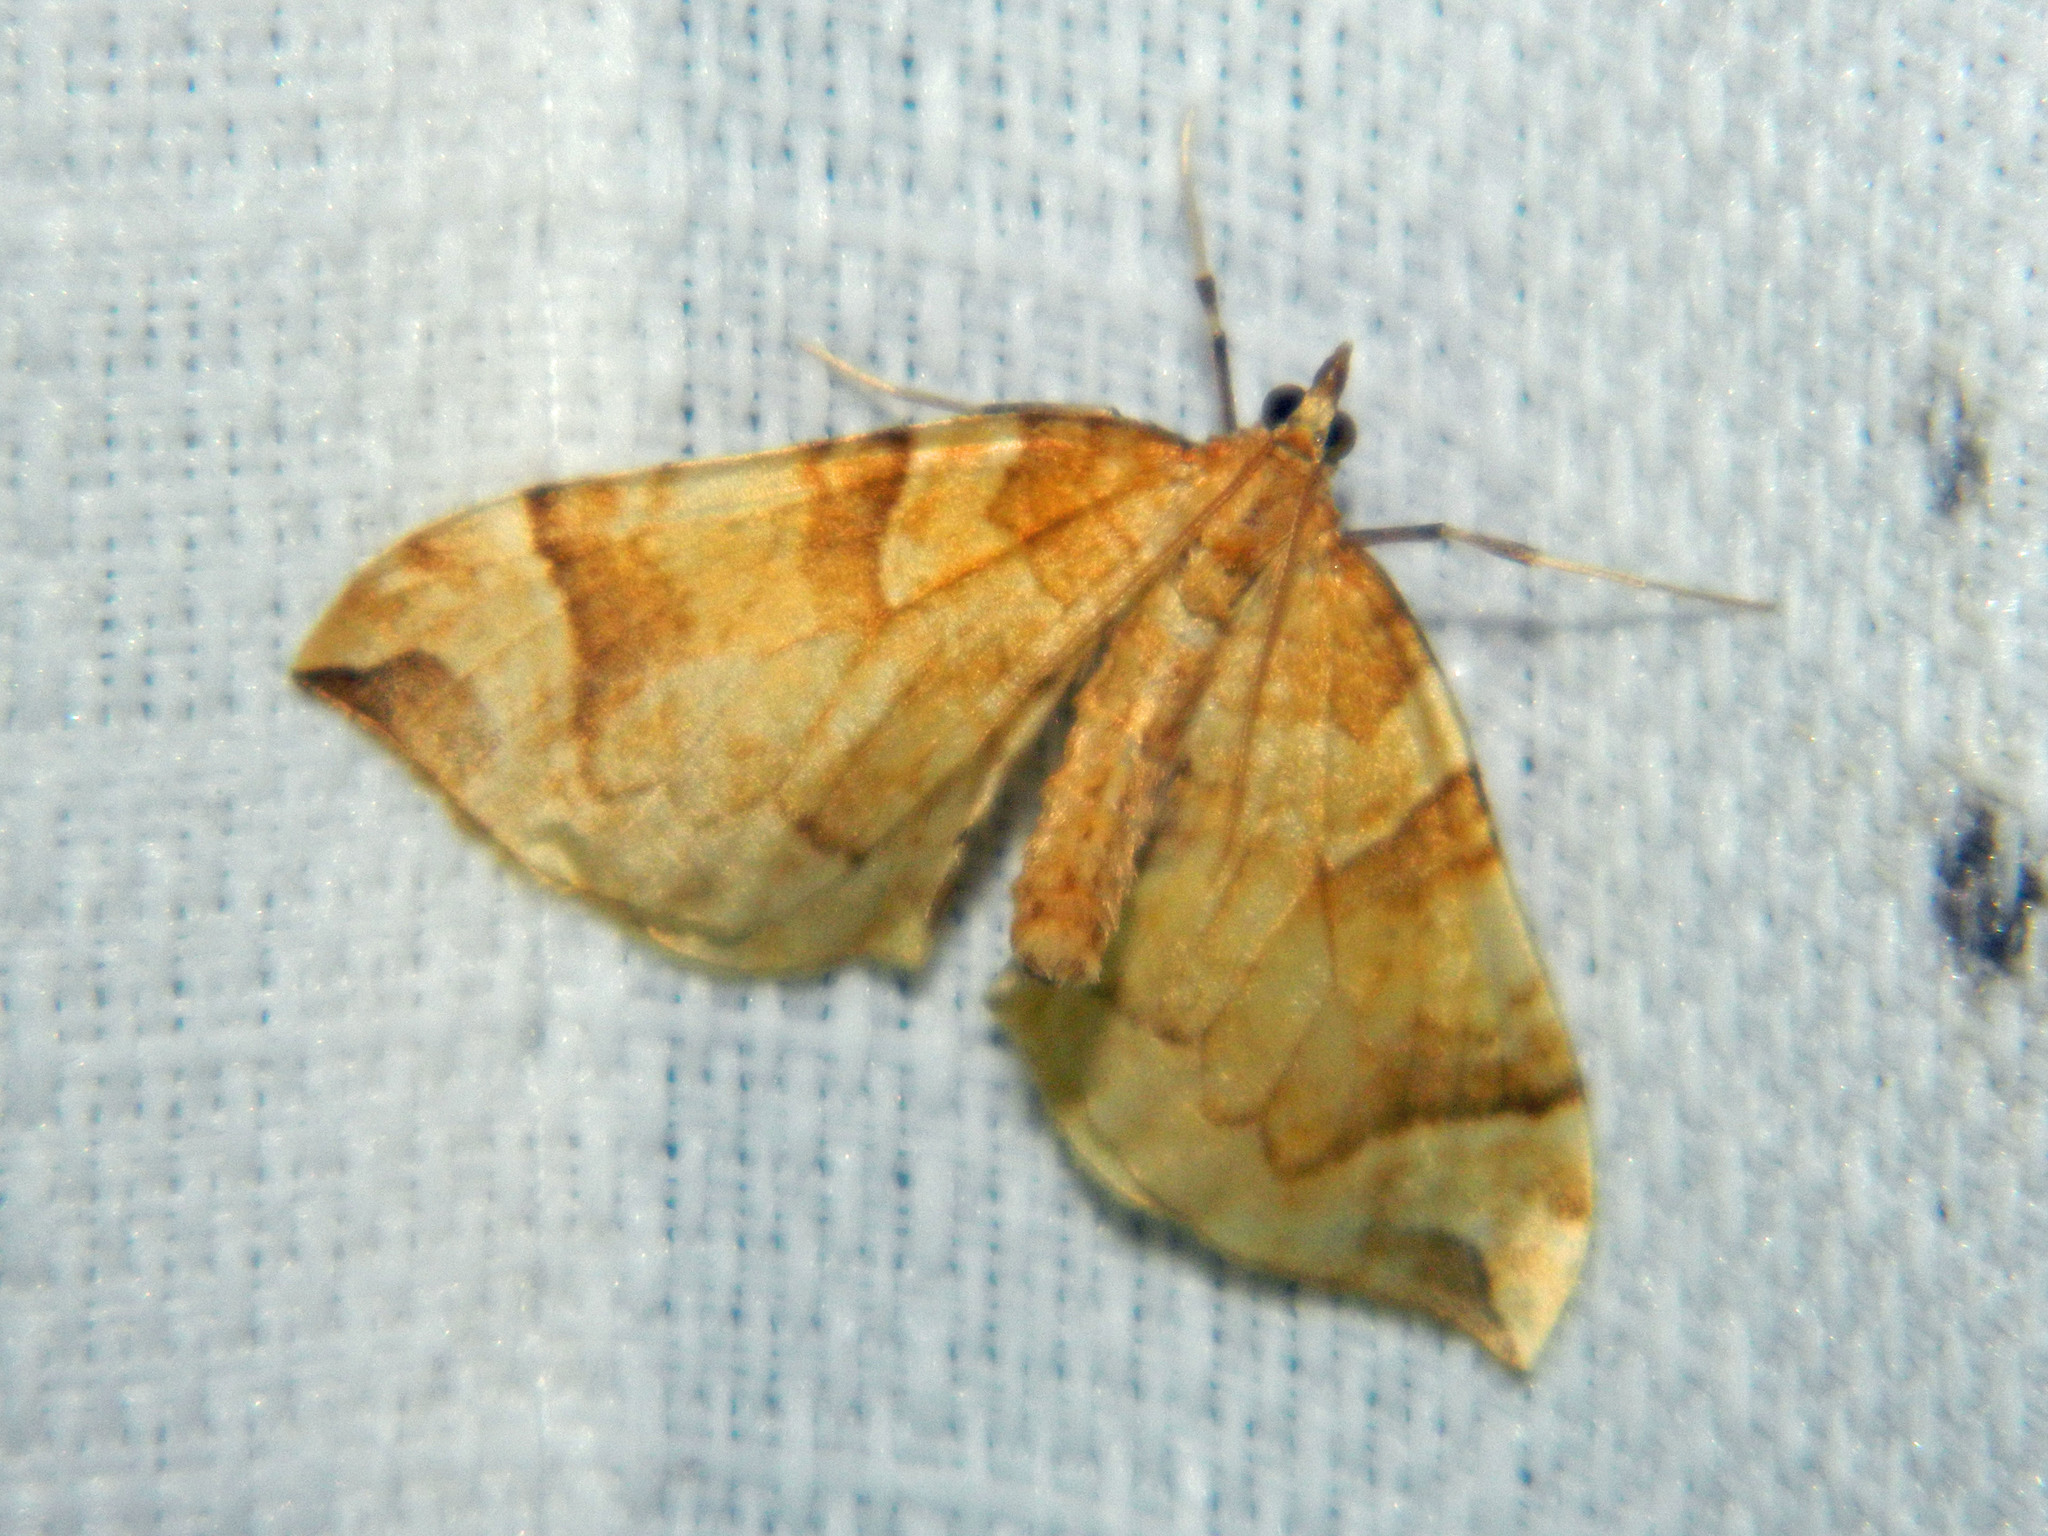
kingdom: Animalia
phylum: Arthropoda
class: Insecta
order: Lepidoptera
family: Geometridae
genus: Eulithis
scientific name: Eulithis propulsata
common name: Currant eulithis moth
